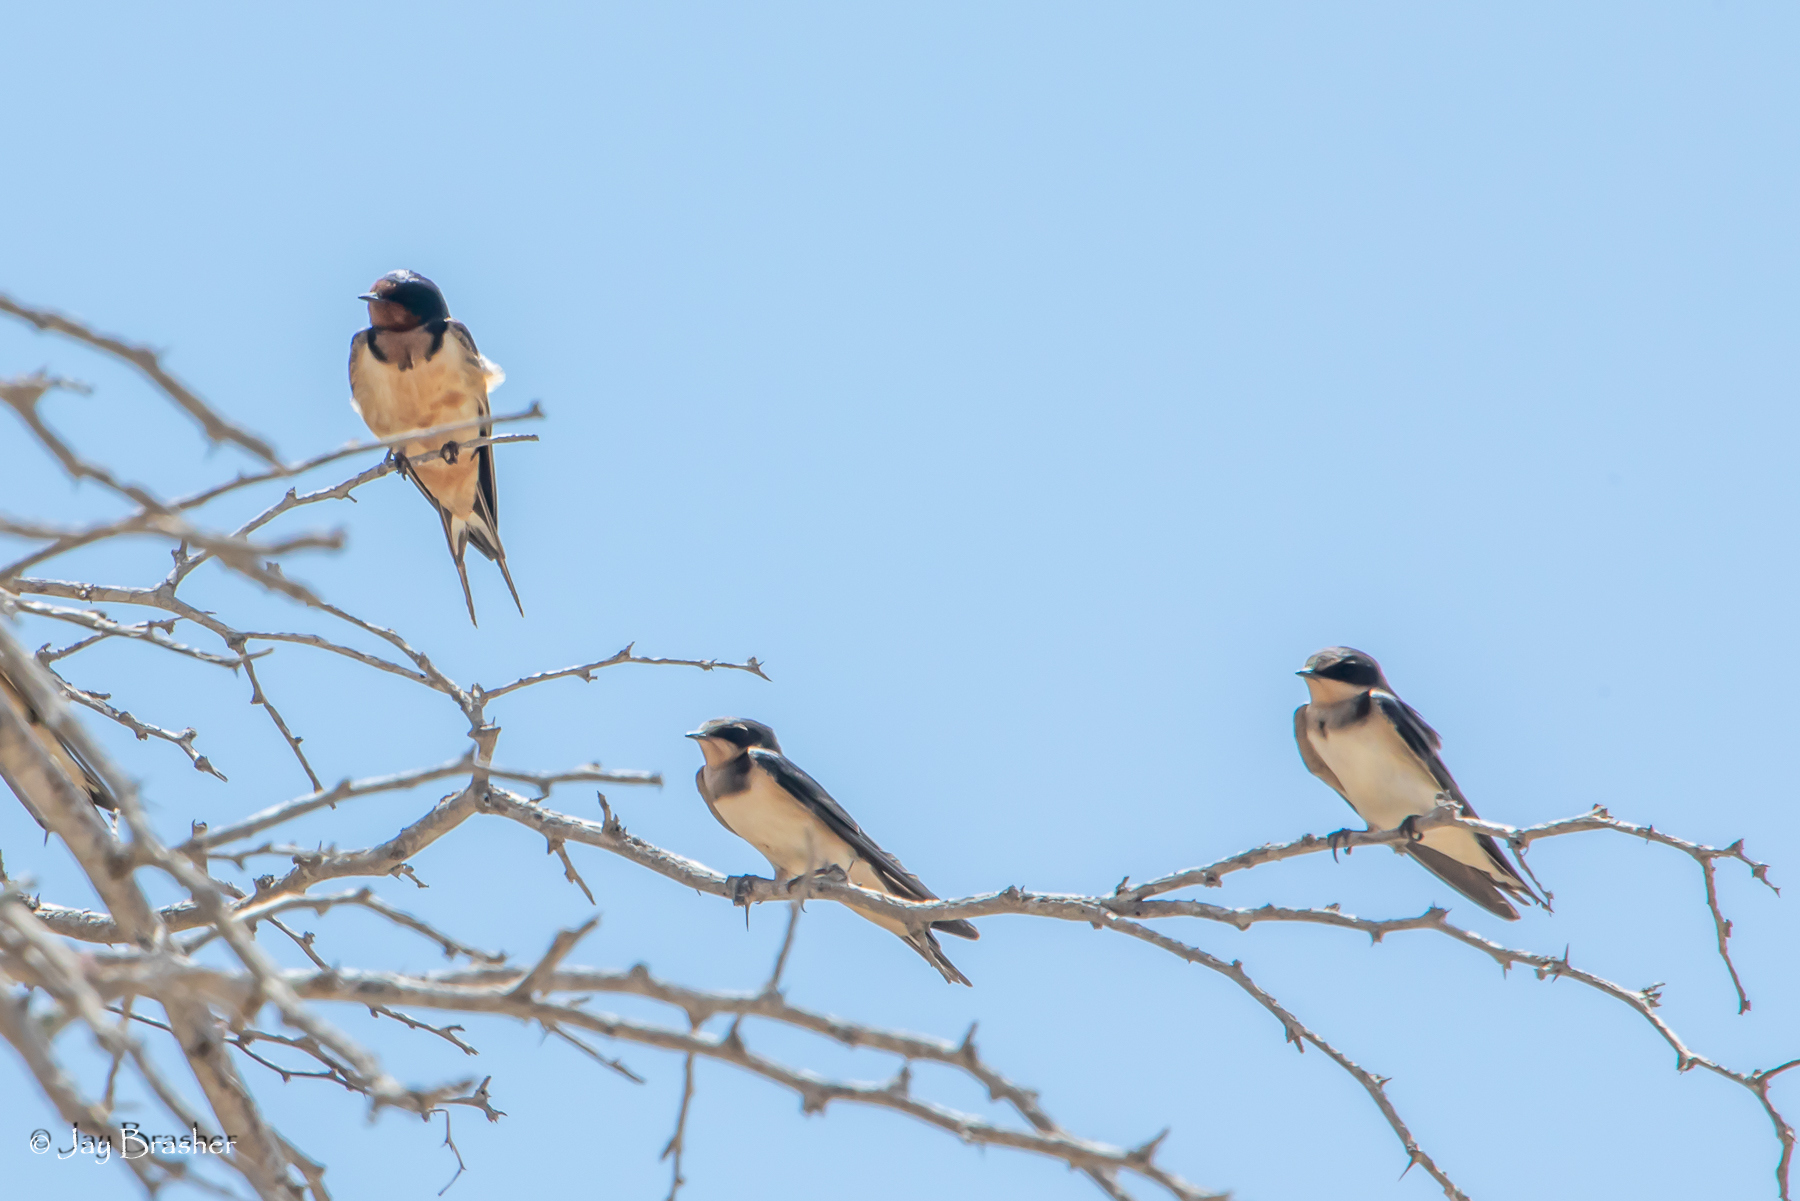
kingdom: Animalia
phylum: Chordata
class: Aves
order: Passeriformes
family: Hirundinidae
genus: Hirundo
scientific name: Hirundo rustica
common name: Barn swallow
